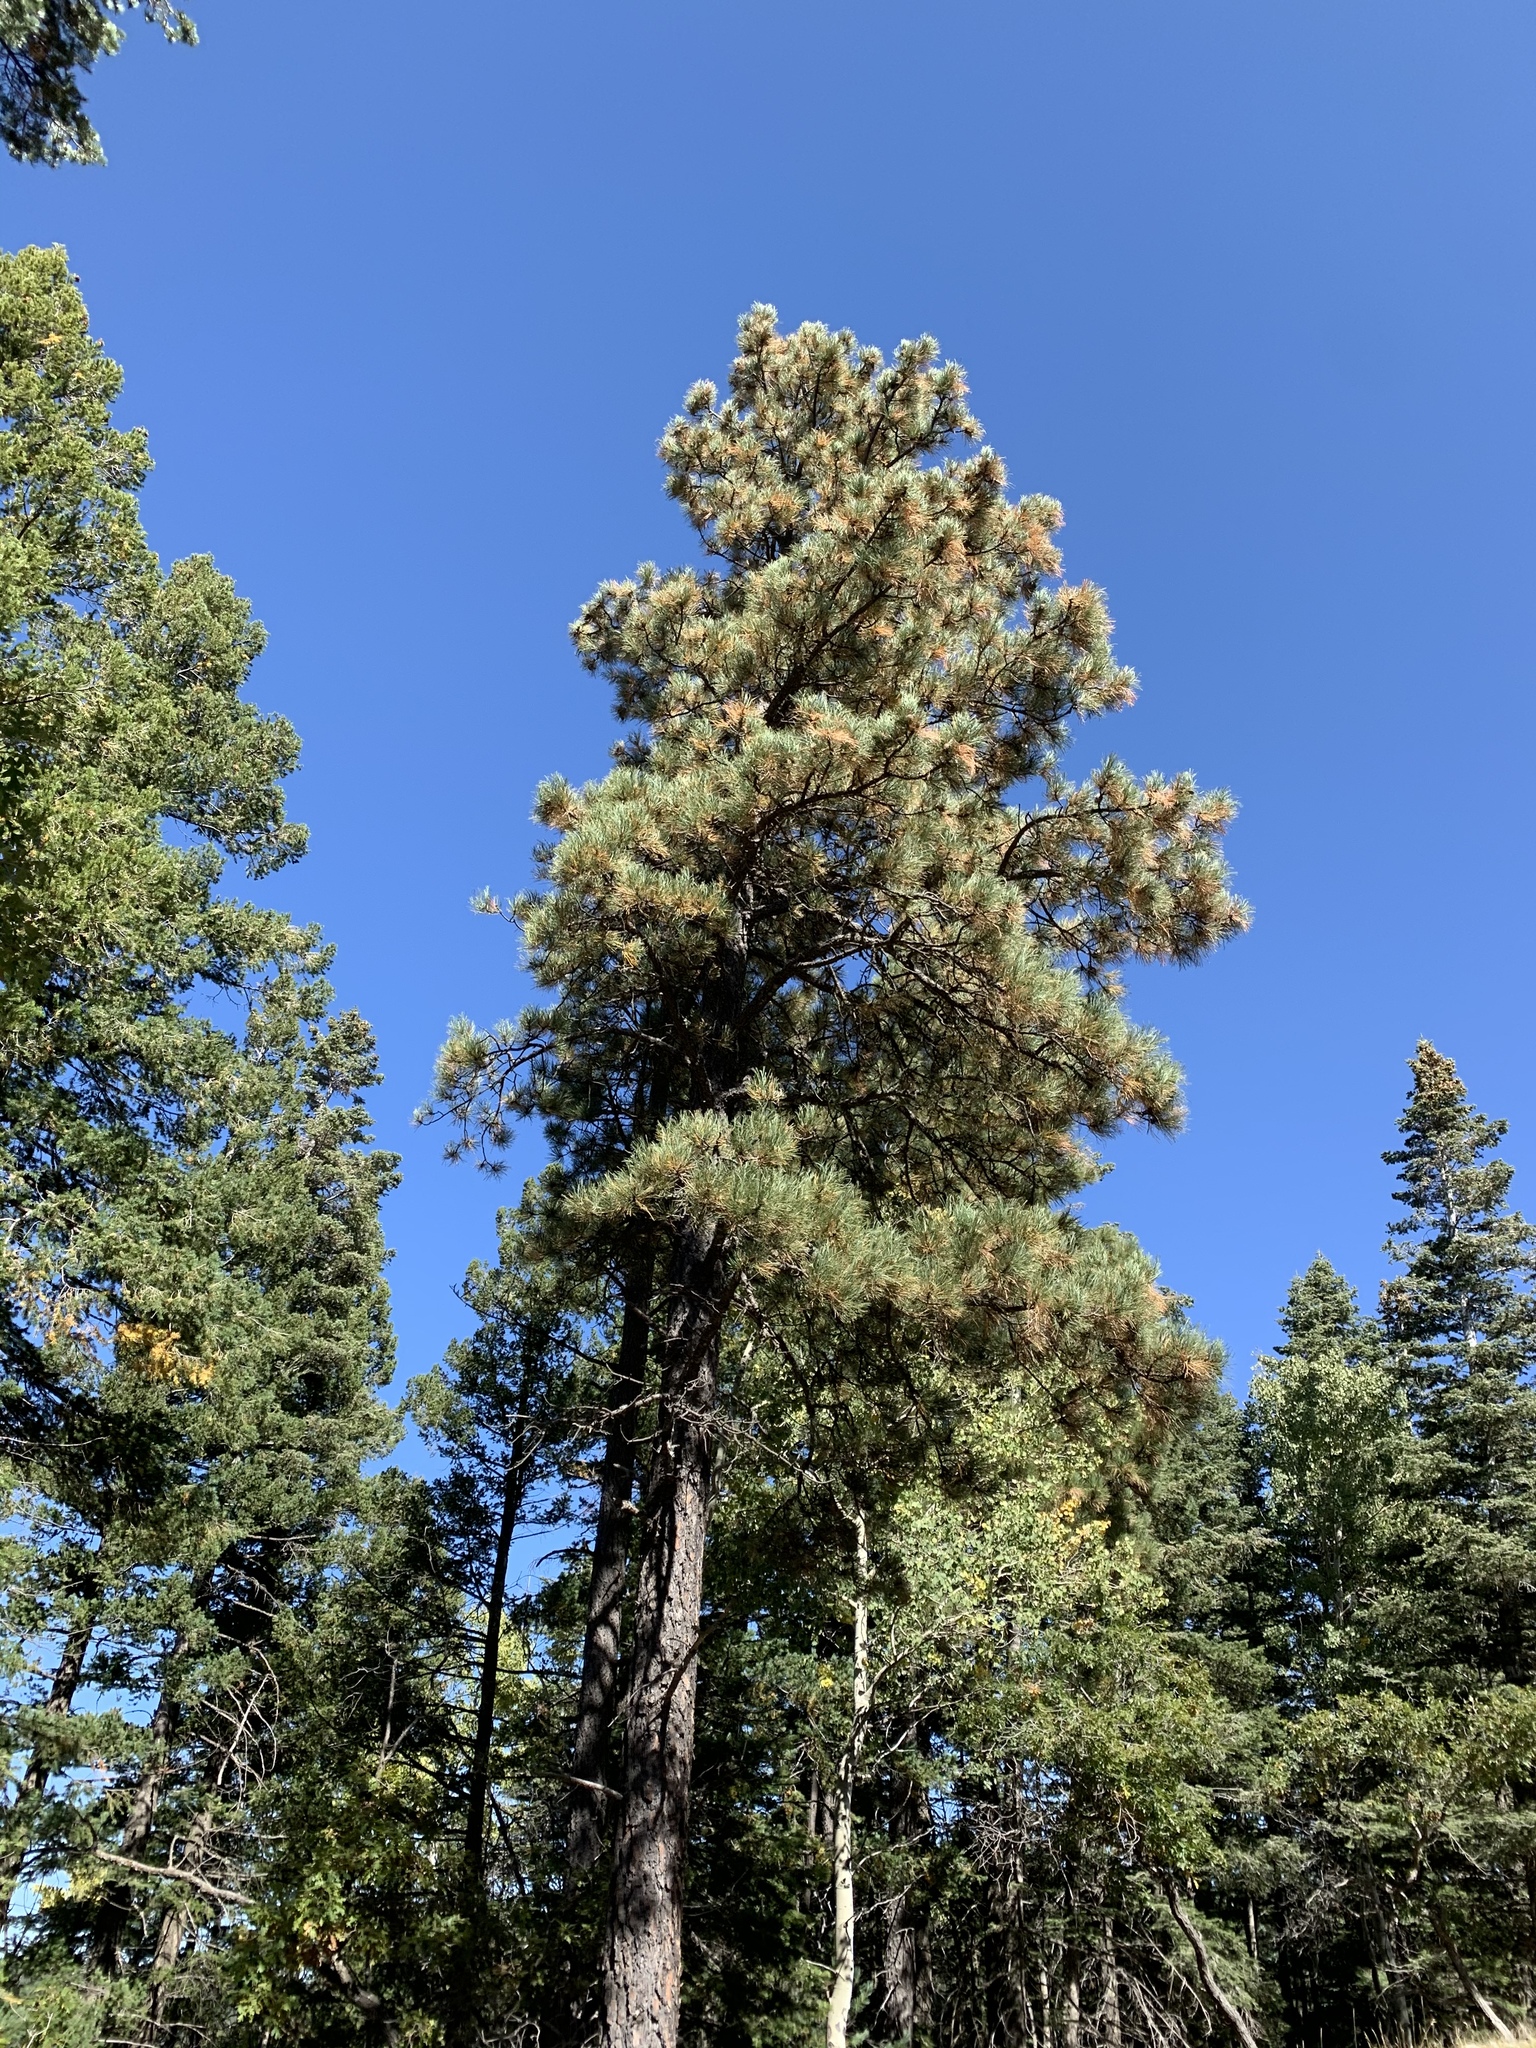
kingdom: Plantae
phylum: Tracheophyta
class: Pinopsida
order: Pinales
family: Pinaceae
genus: Pinus
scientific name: Pinus ponderosa
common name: Western yellow-pine
